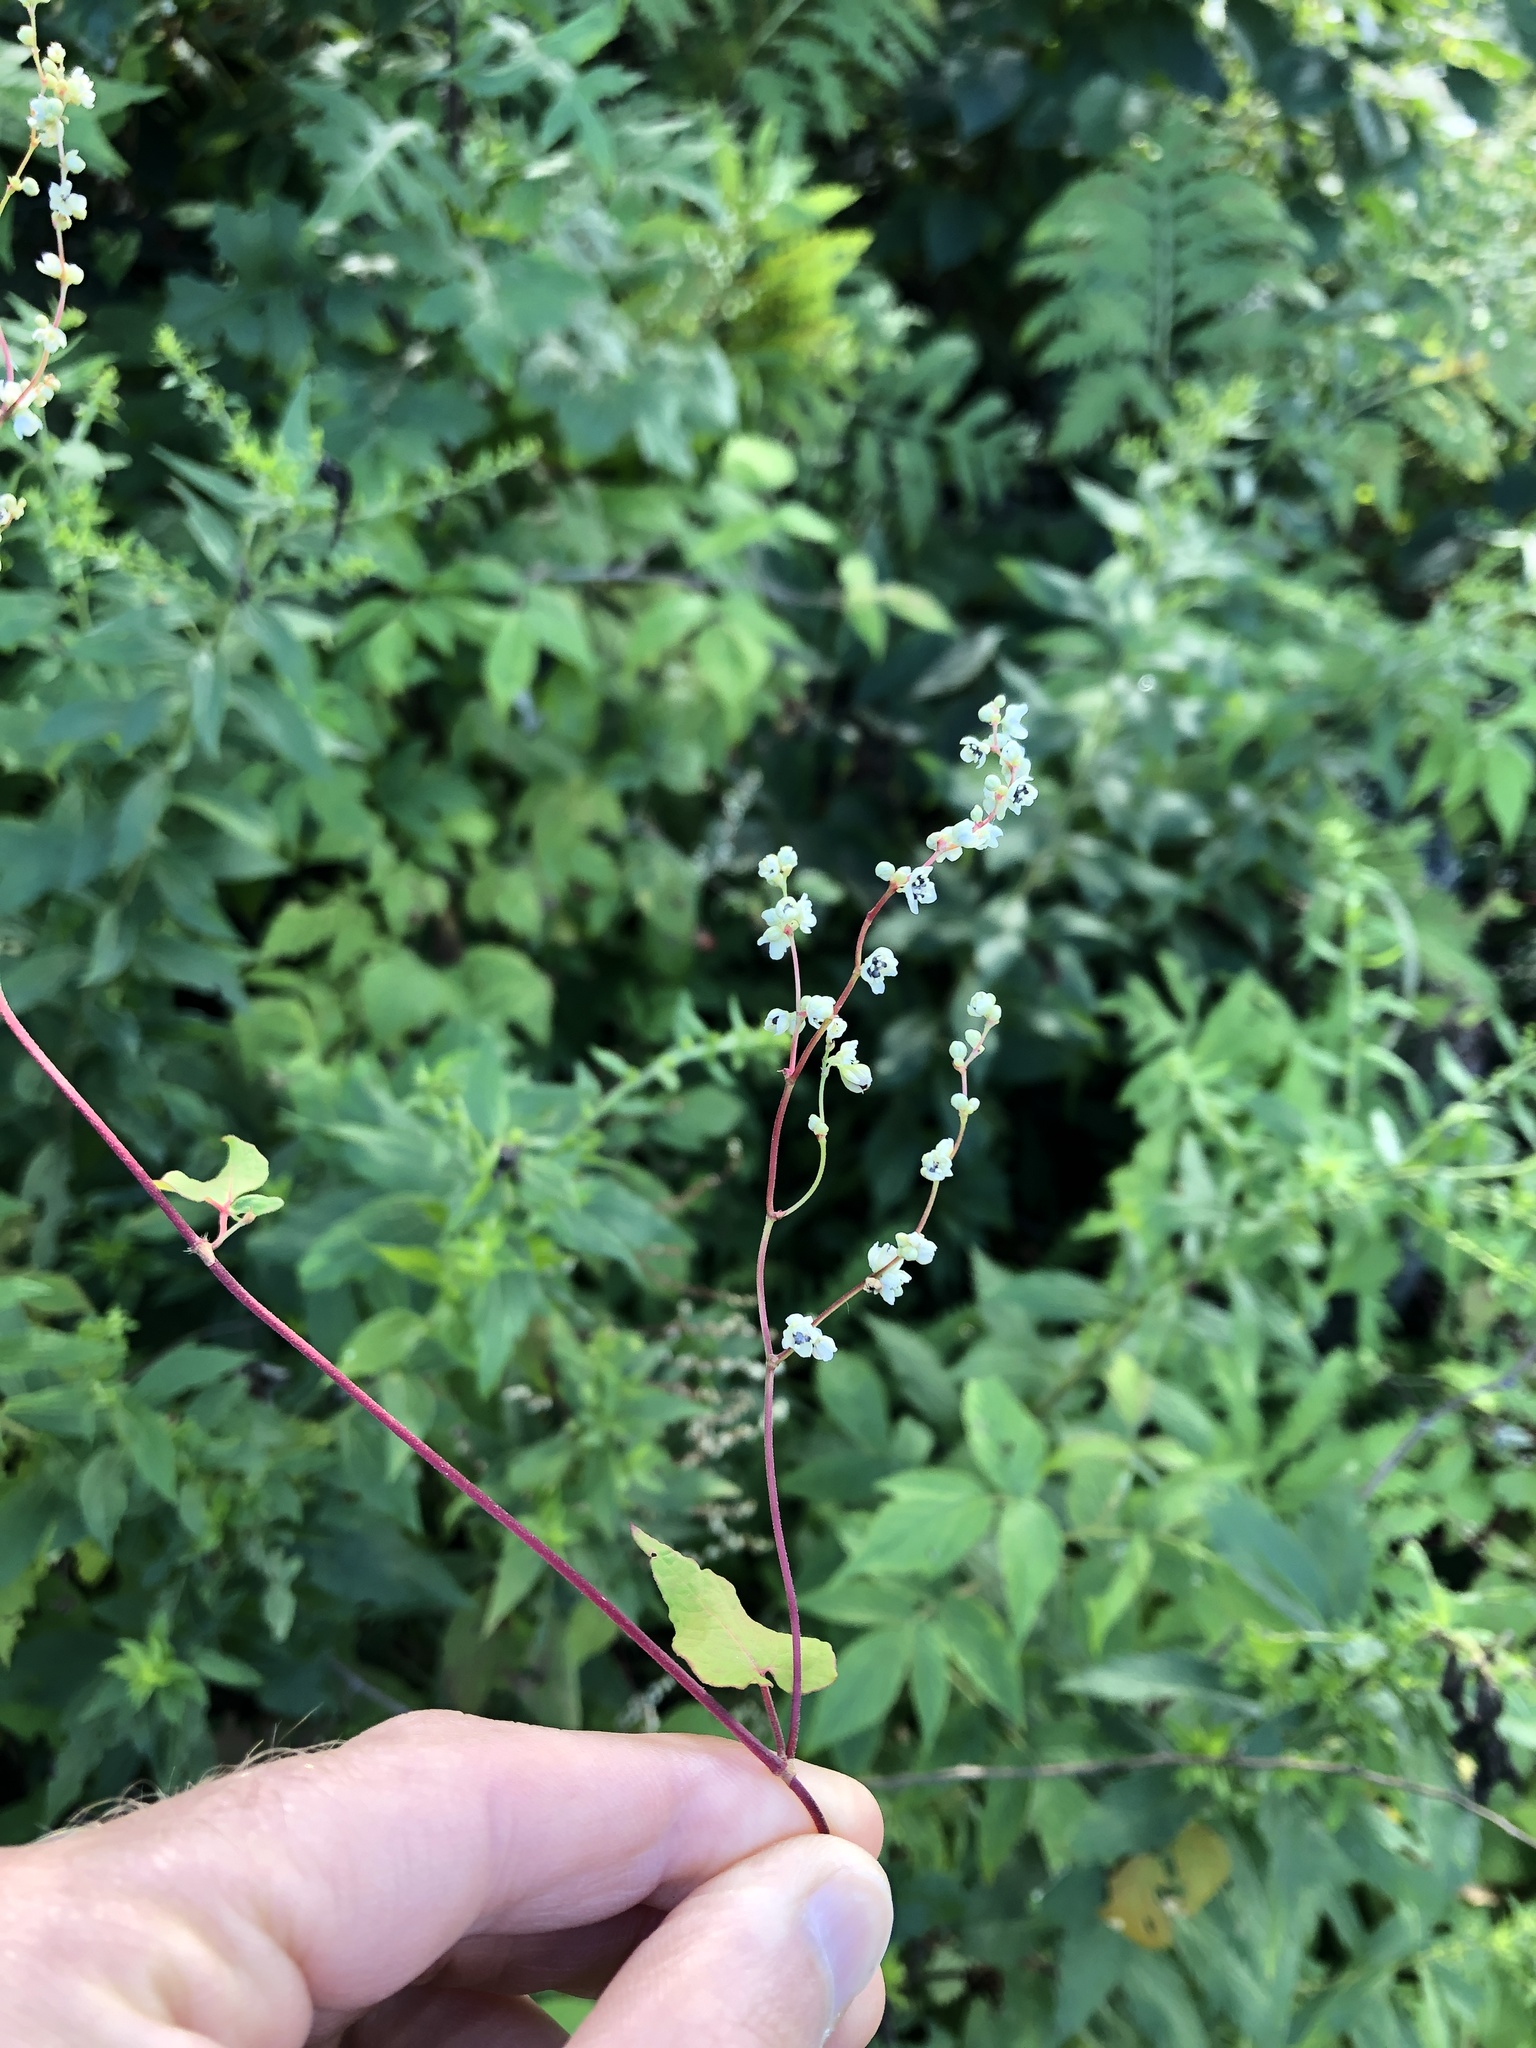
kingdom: Plantae
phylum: Tracheophyta
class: Magnoliopsida
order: Caryophyllales
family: Polygonaceae
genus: Parogonum
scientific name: Parogonum ciliinode
